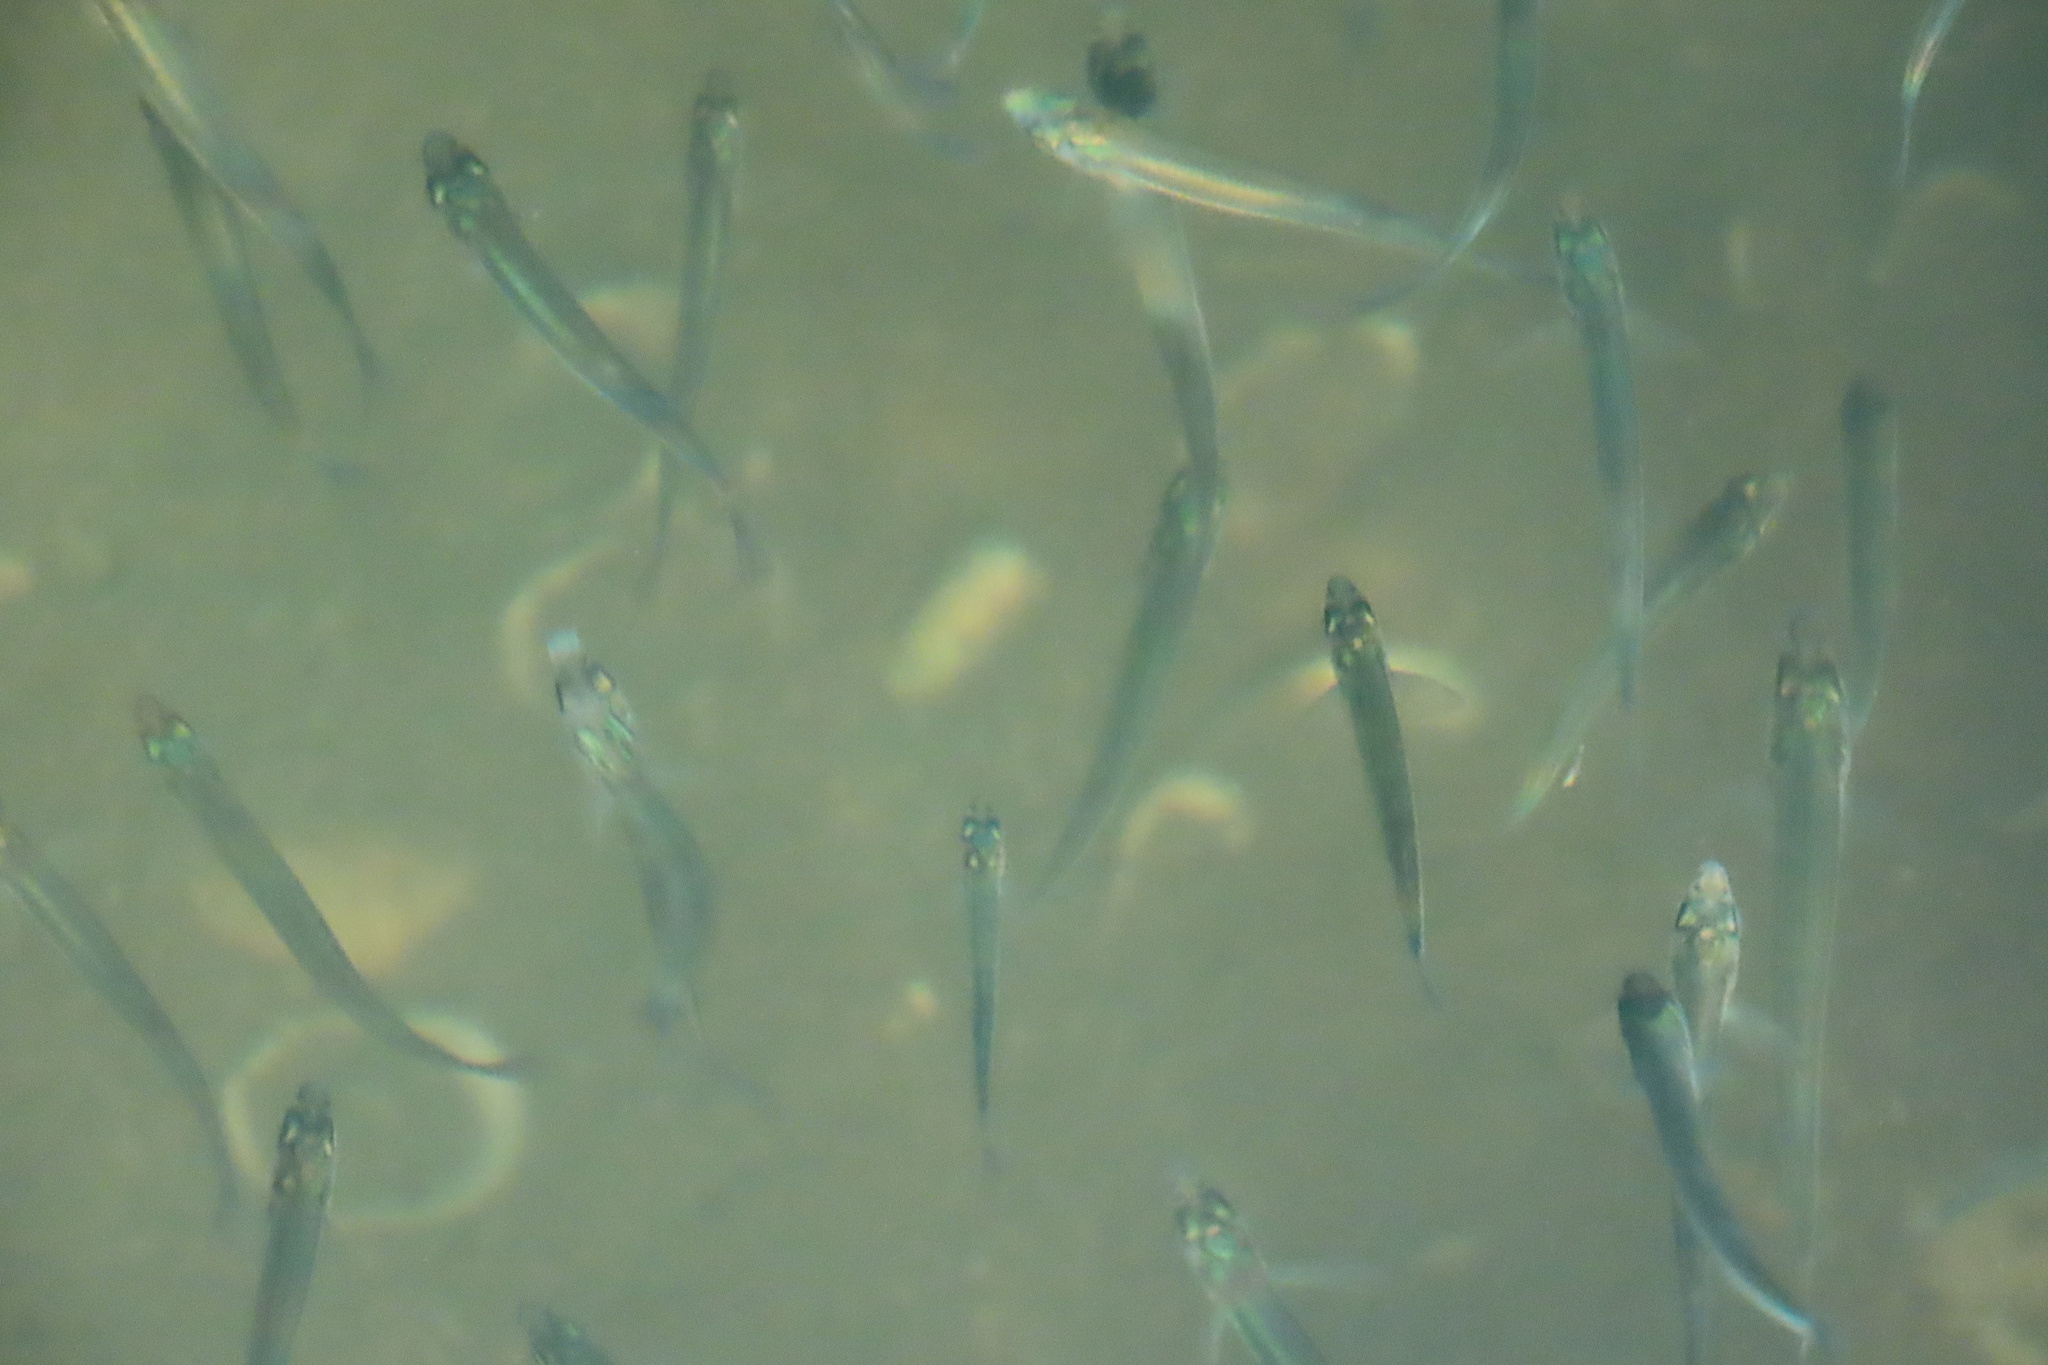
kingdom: Animalia
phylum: Chordata
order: Atheriniformes
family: Atherinopsidae
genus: Atherinops
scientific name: Atherinops affinis
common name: Topsmelt
